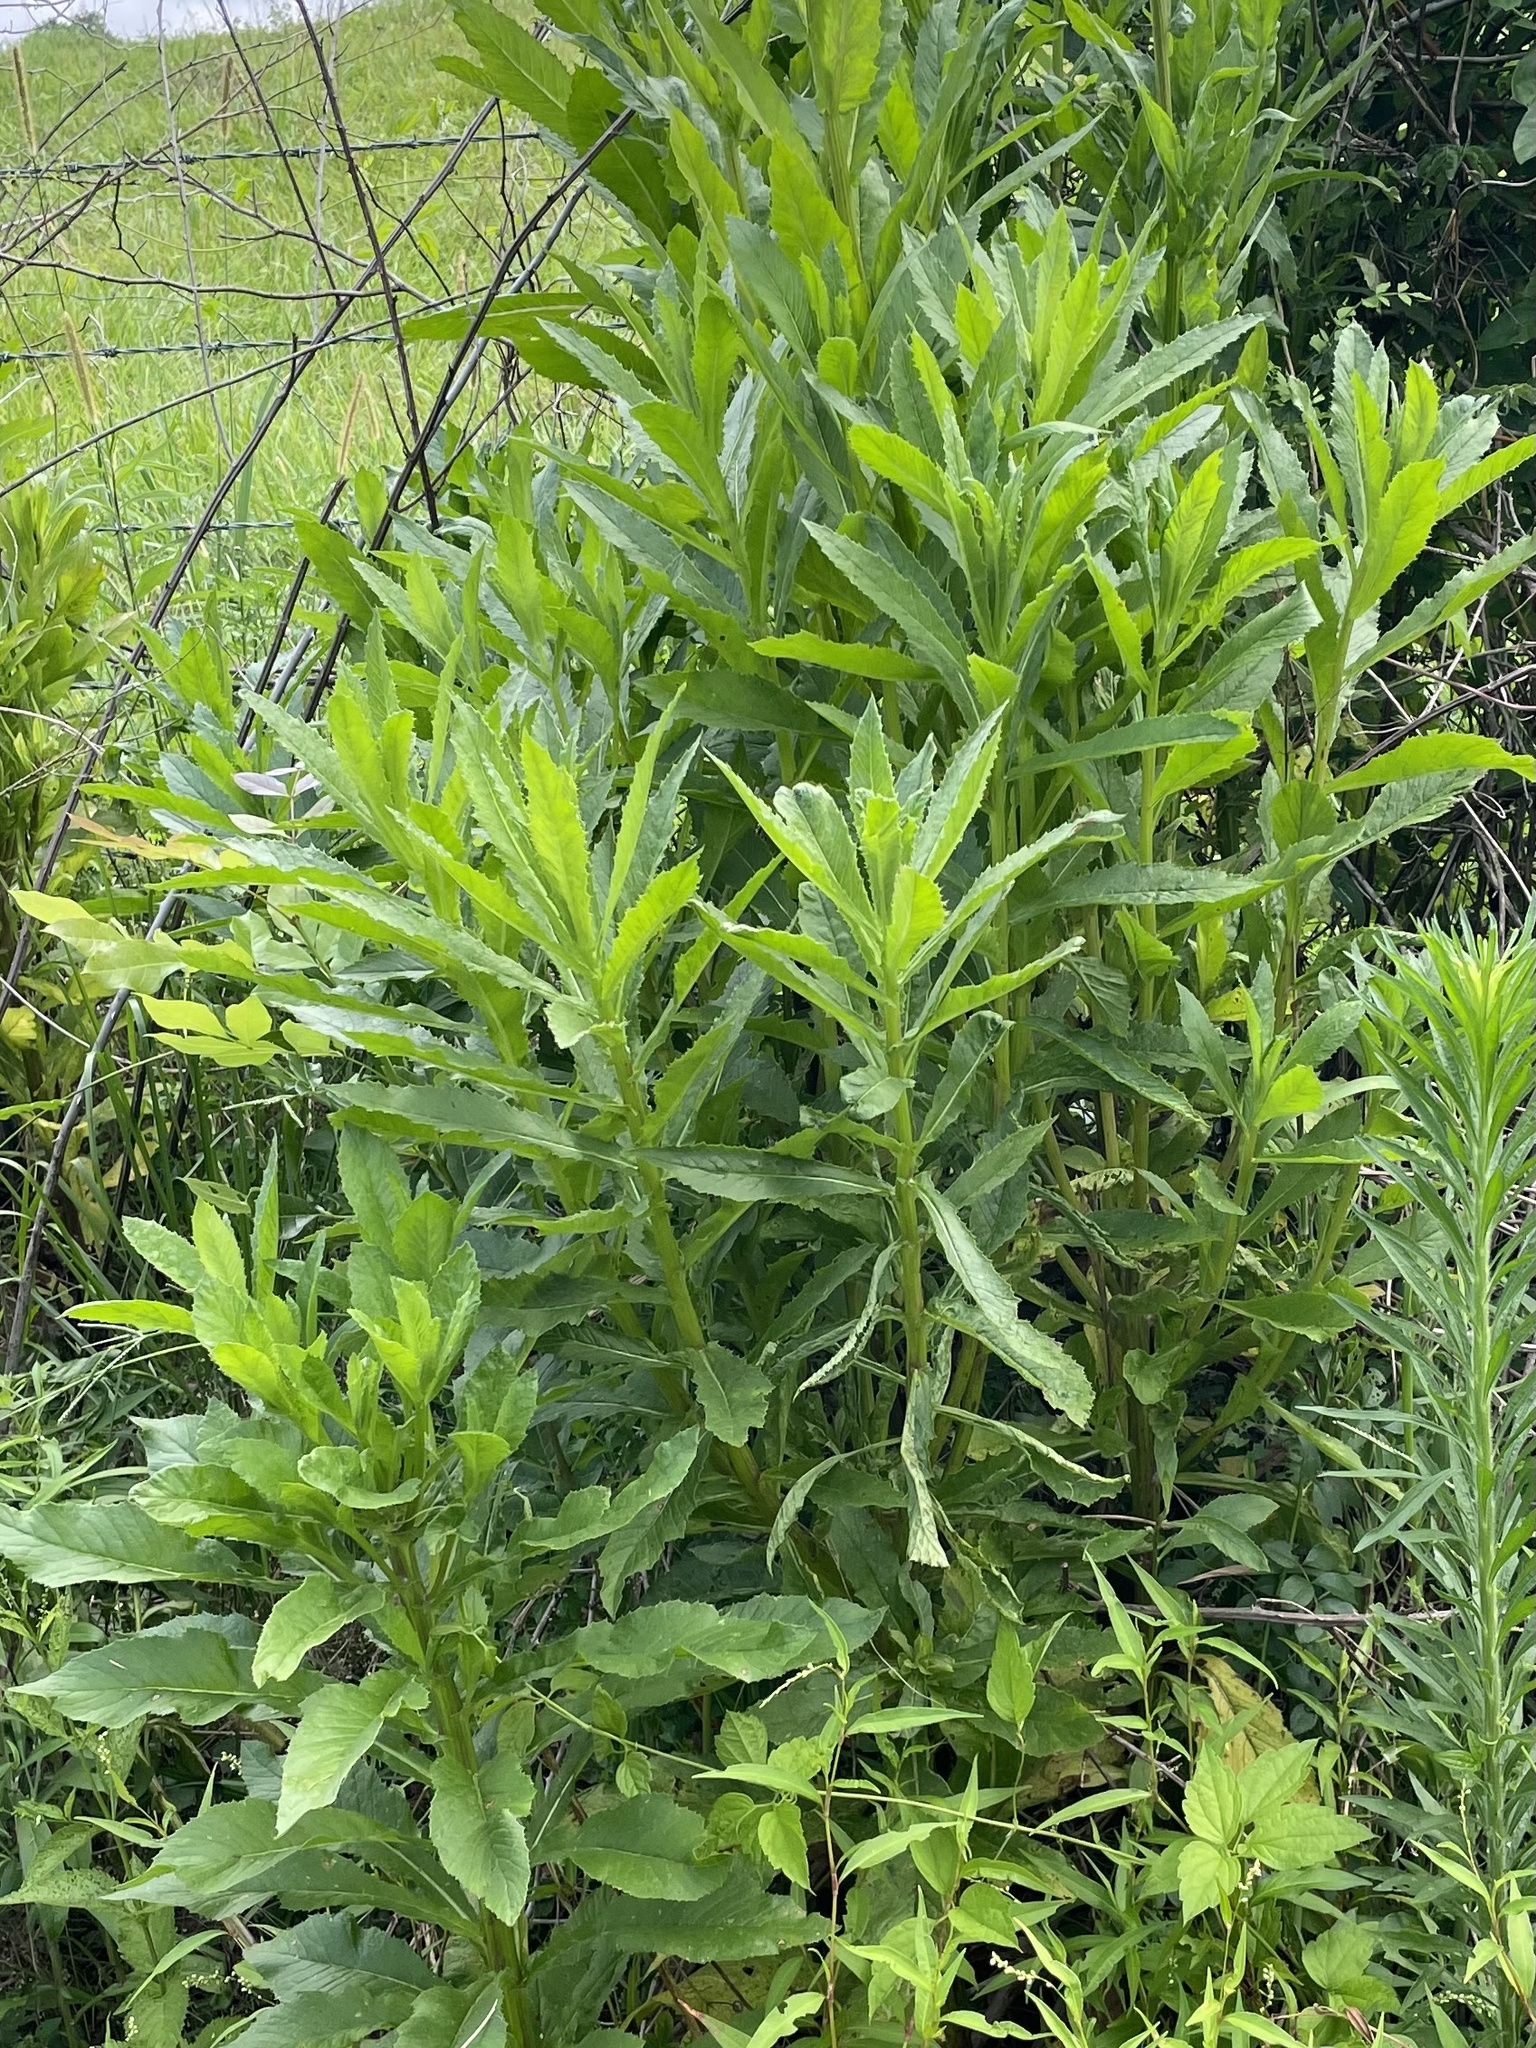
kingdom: Plantae
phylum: Tracheophyta
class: Magnoliopsida
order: Asterales
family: Asteraceae
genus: Erechtites
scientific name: Erechtites hieraciifolius
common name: American burnweed
